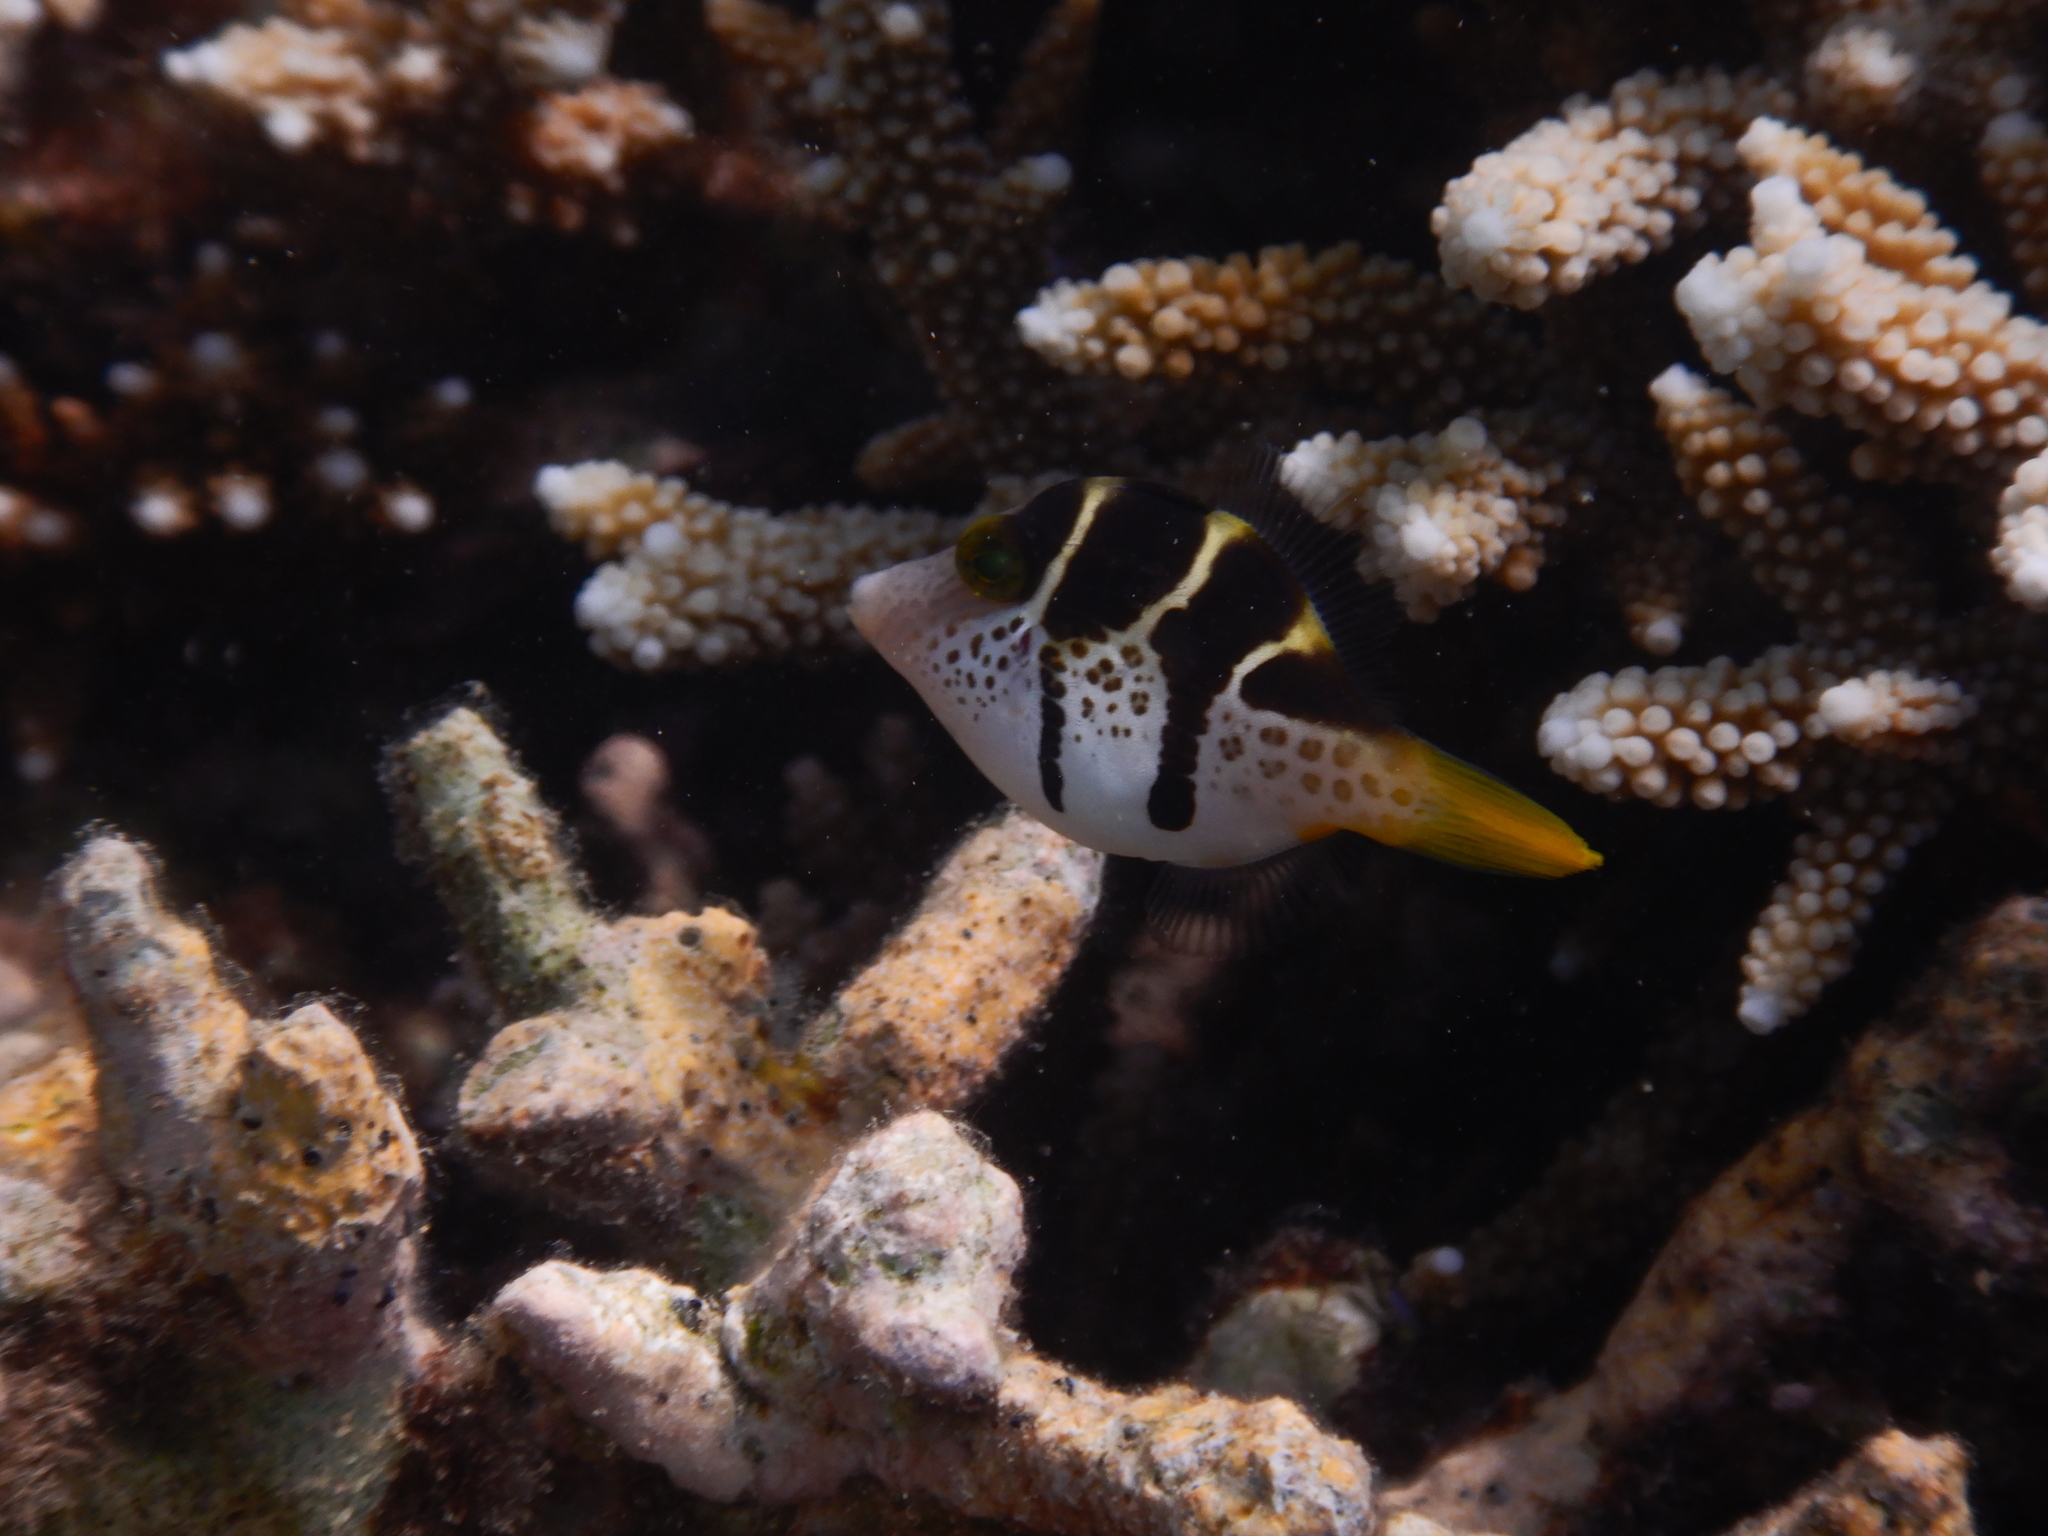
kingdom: Animalia
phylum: Chordata
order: Tetraodontiformes
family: Monacanthidae
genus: Paraluteres
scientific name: Paraluteres prionurus
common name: Black-saddled leatherjacket
